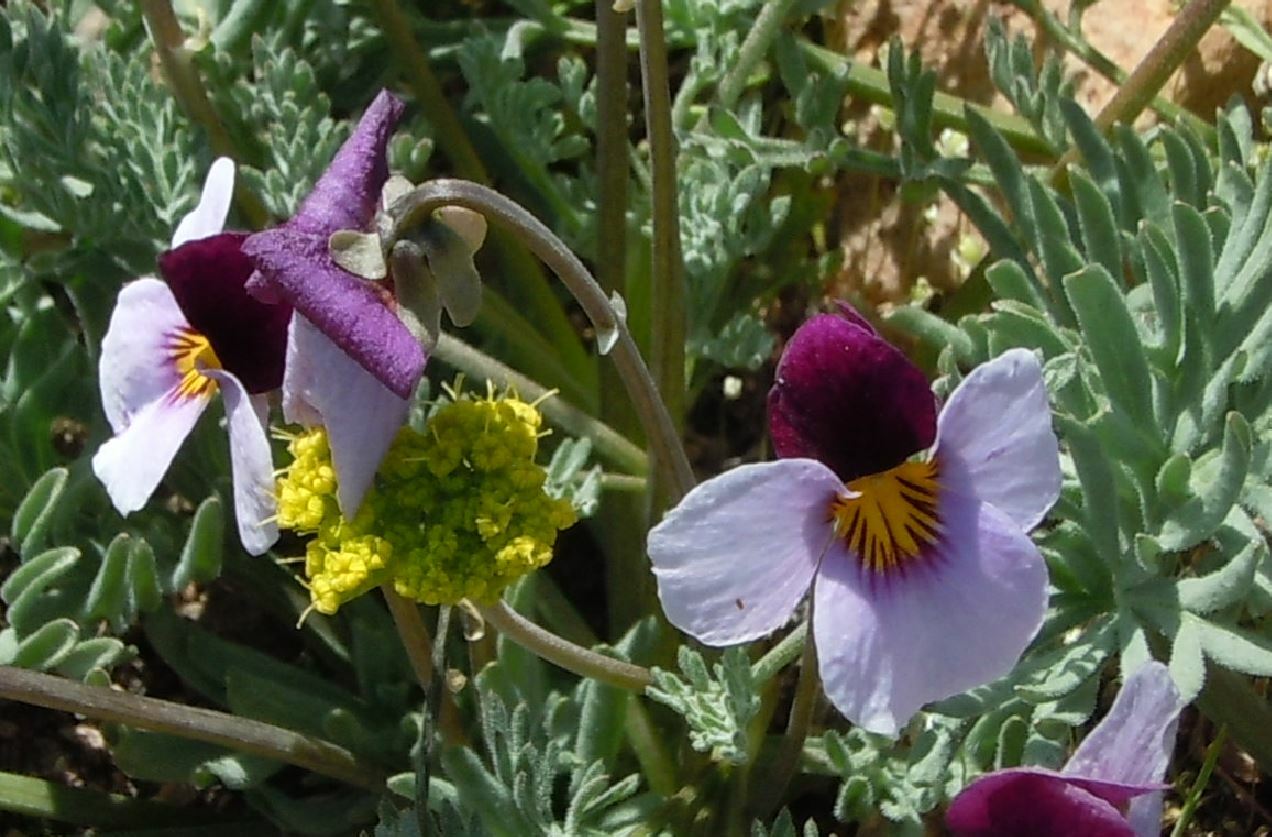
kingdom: Plantae
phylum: Tracheophyta
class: Magnoliopsida
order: Malpighiales
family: Violaceae
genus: Viola
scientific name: Viola beckwithii
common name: Beckwith's violet
